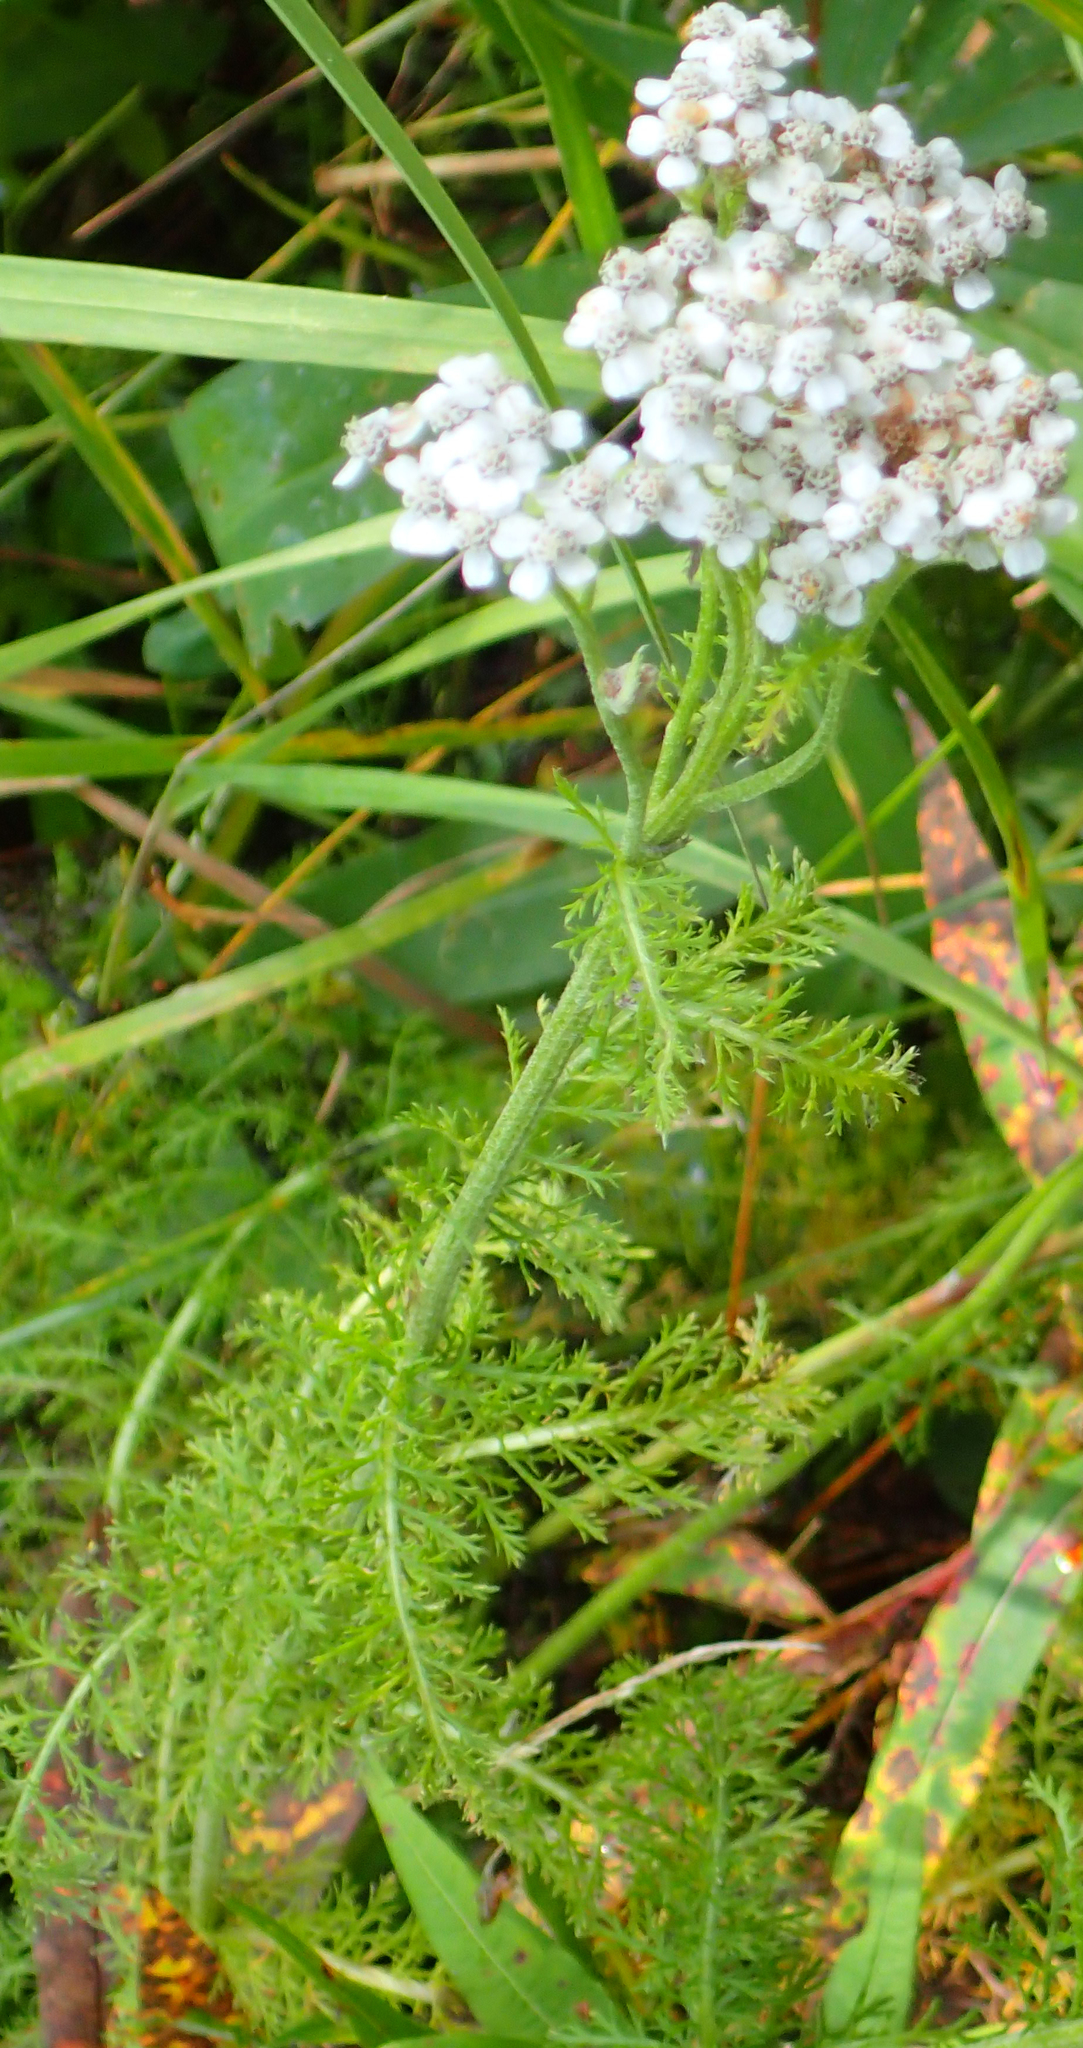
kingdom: Plantae
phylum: Tracheophyta
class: Magnoliopsida
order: Asterales
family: Asteraceae
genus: Achillea
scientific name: Achillea millefolium
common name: Yarrow
